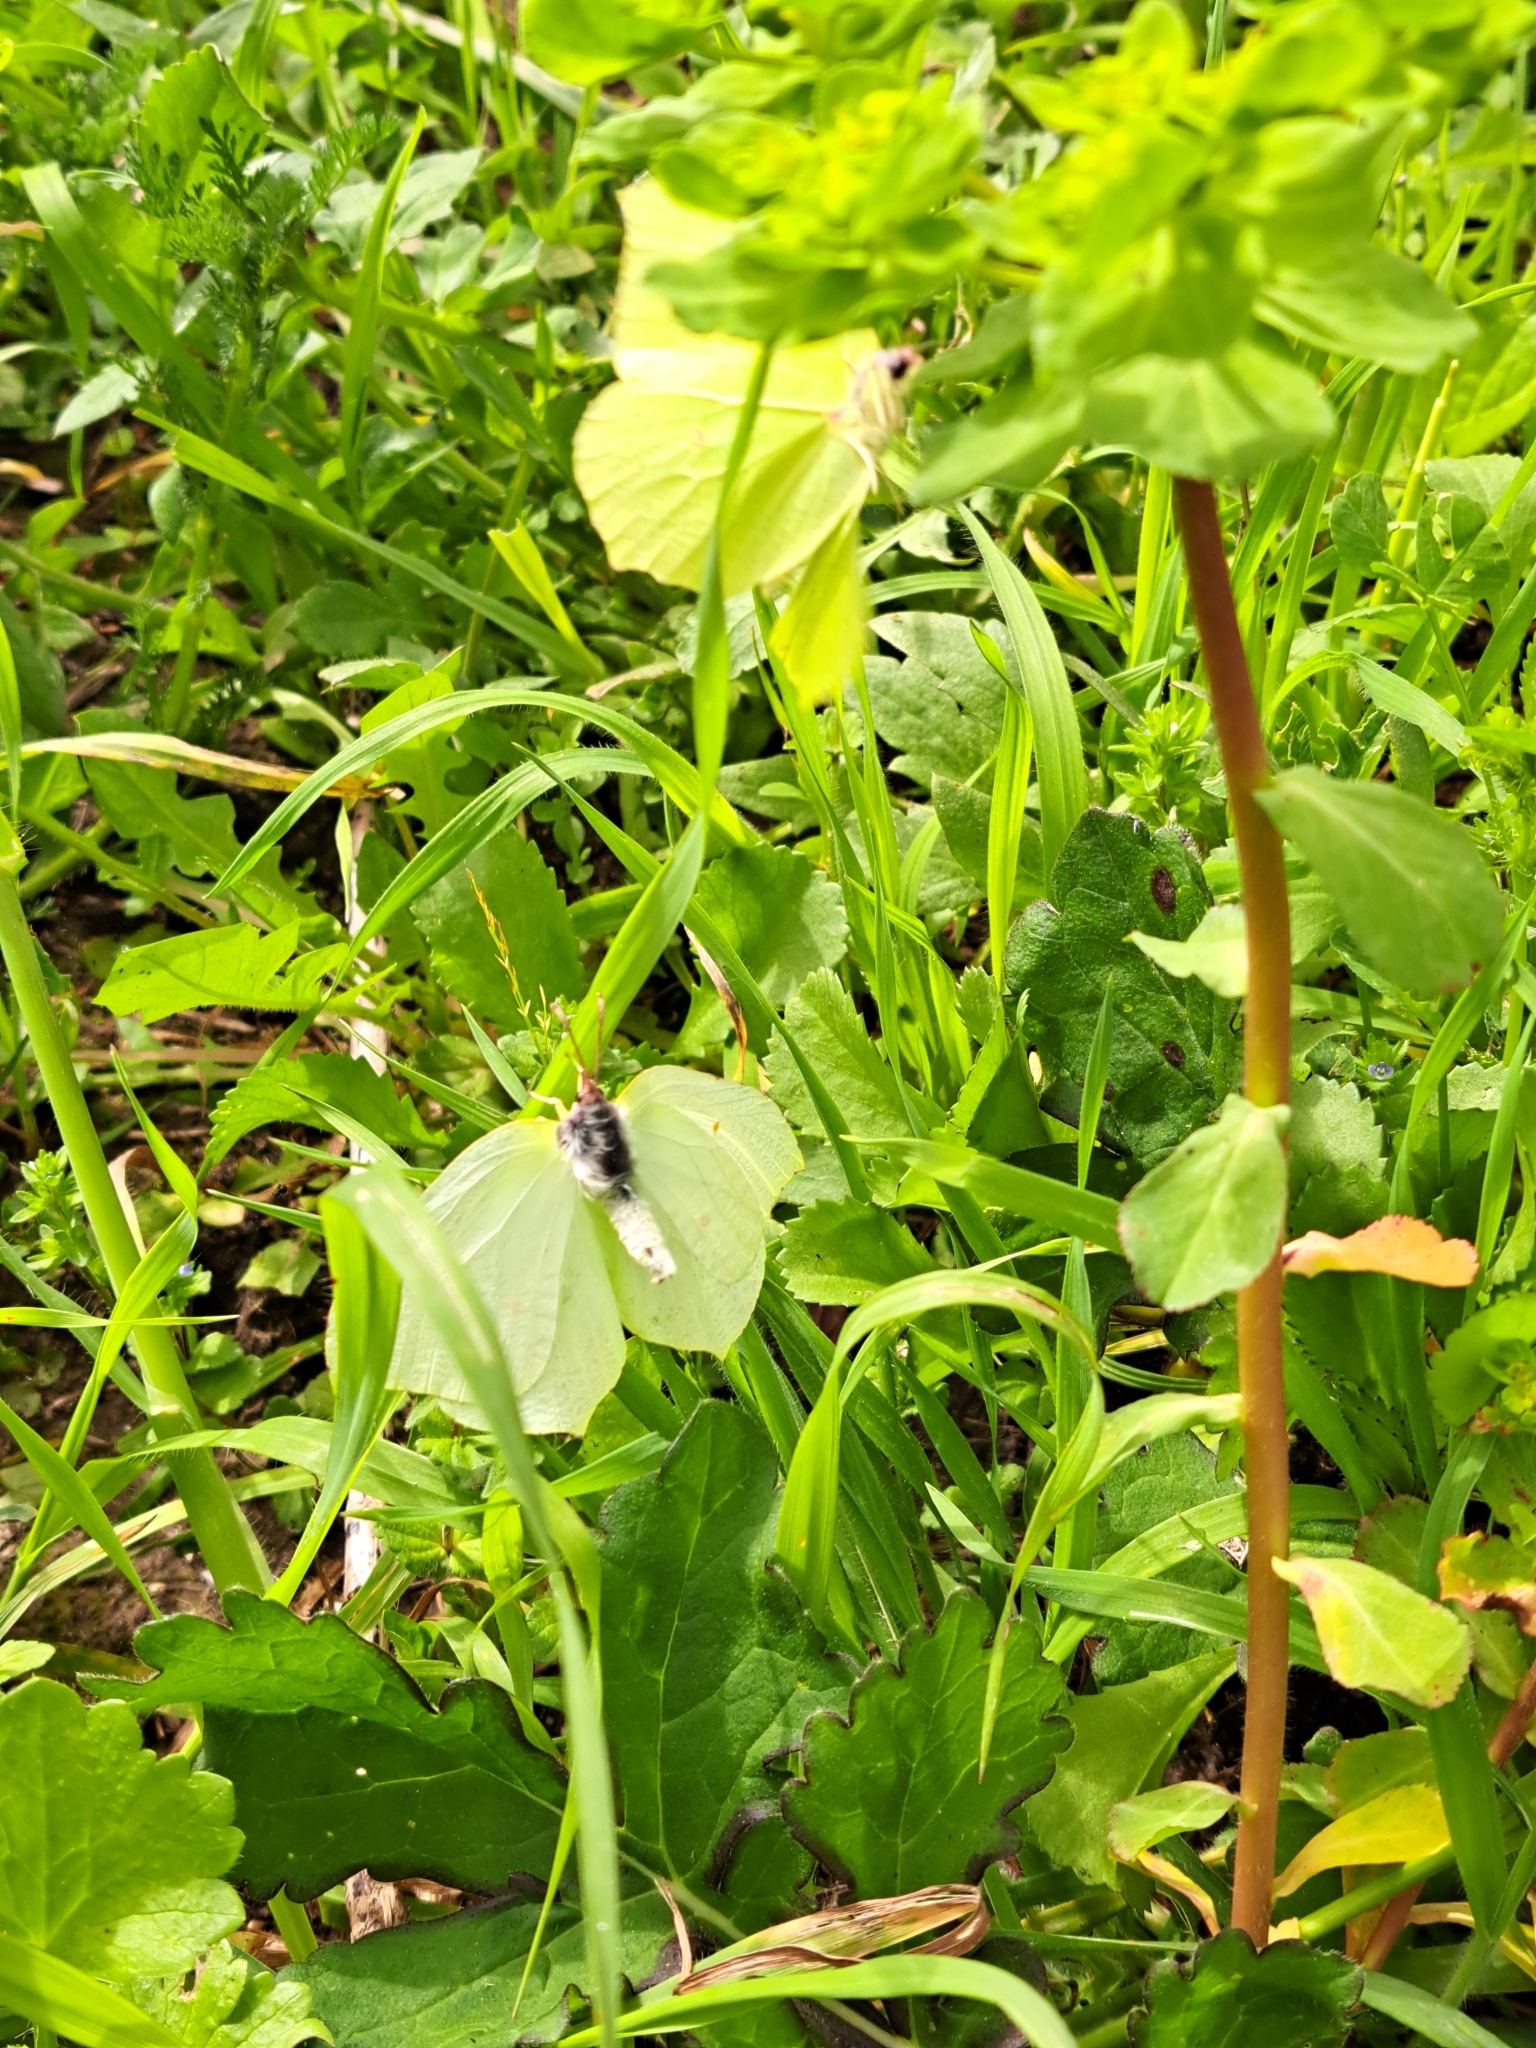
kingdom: Animalia
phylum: Arthropoda
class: Insecta
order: Lepidoptera
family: Pieridae
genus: Gonepteryx
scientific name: Gonepteryx rhamni
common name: Brimstone
